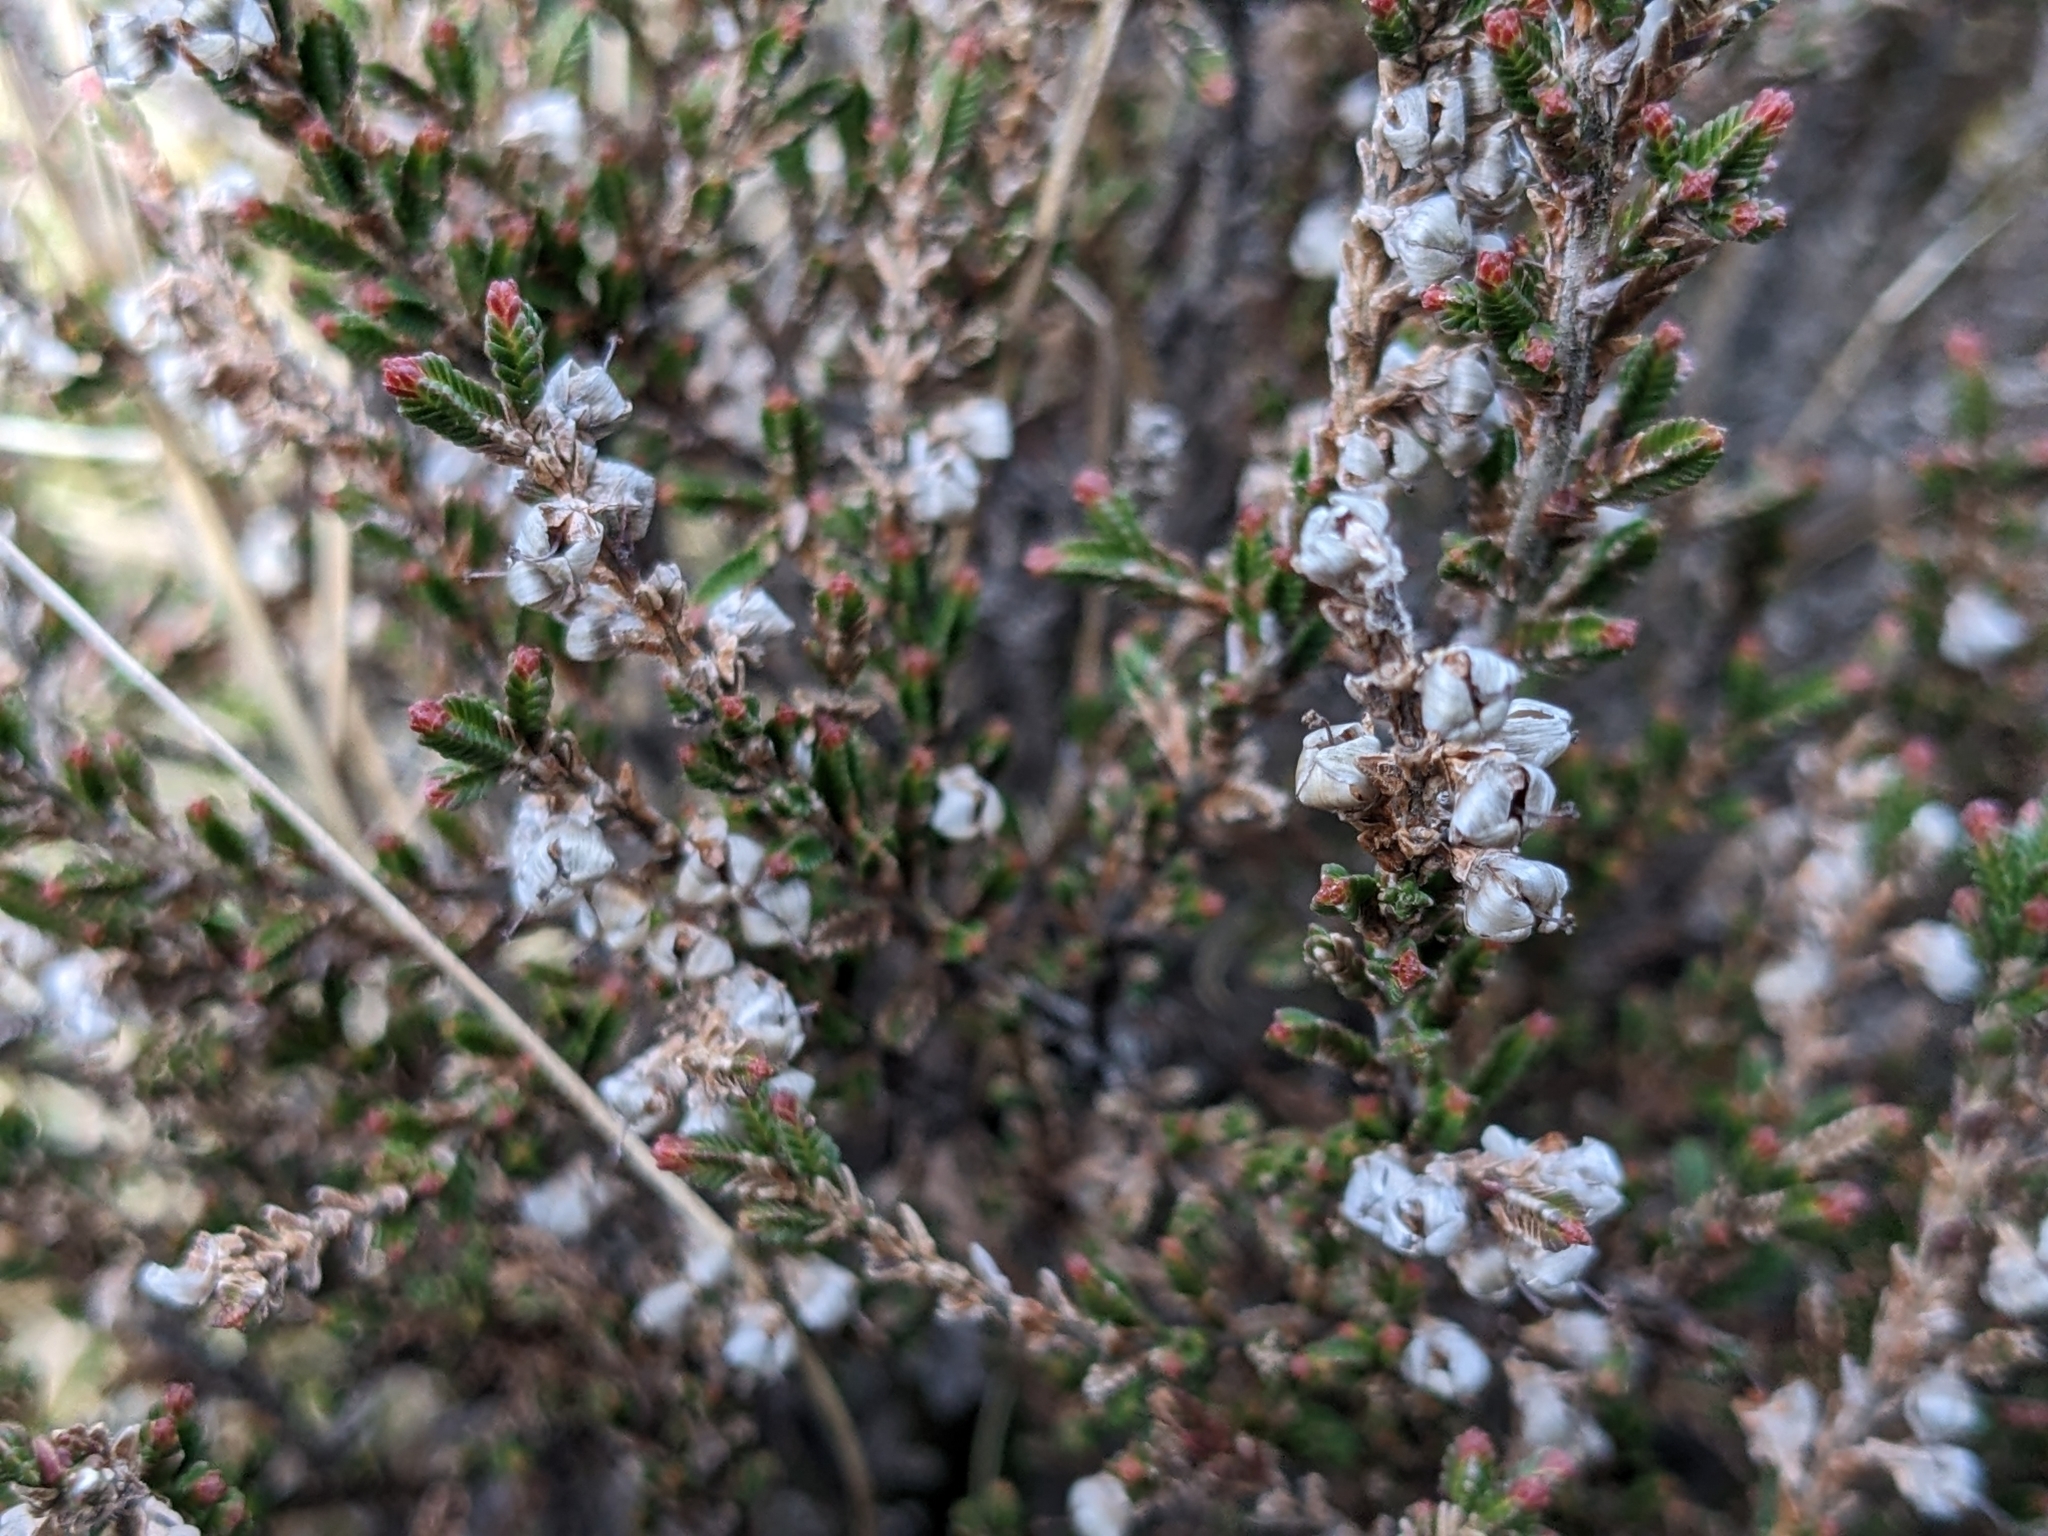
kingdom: Plantae
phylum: Tracheophyta
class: Magnoliopsida
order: Ericales
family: Ericaceae
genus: Calluna
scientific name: Calluna vulgaris
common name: Heather
